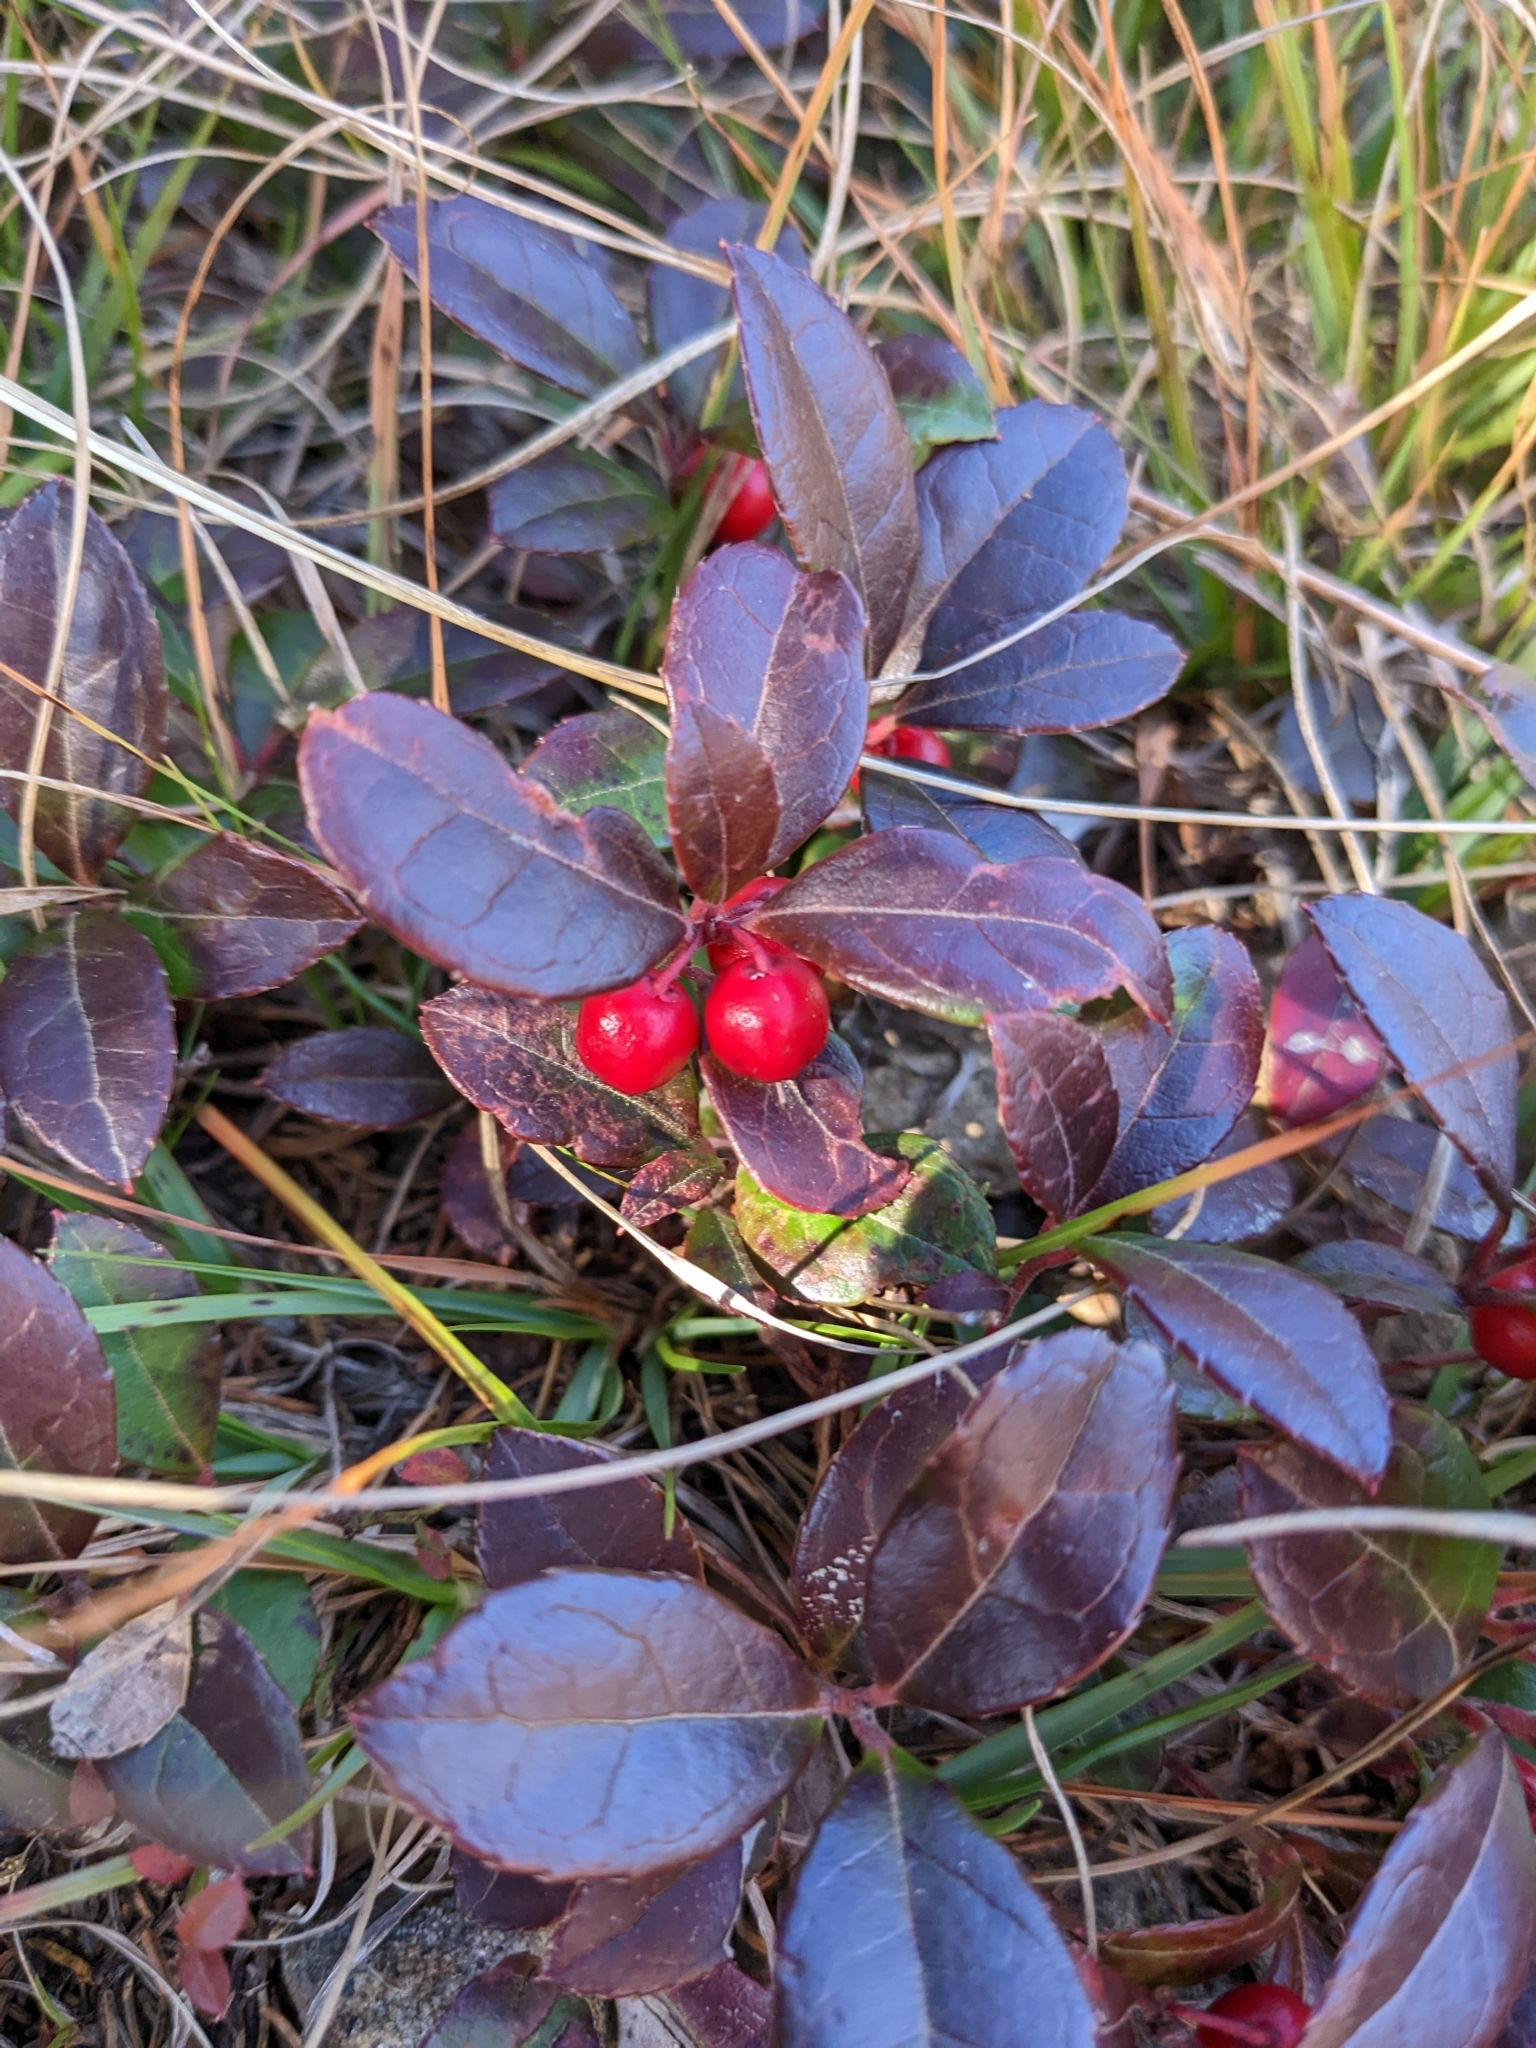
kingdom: Plantae
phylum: Tracheophyta
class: Magnoliopsida
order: Ericales
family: Ericaceae
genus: Gaultheria
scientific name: Gaultheria procumbens
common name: Checkerberry
